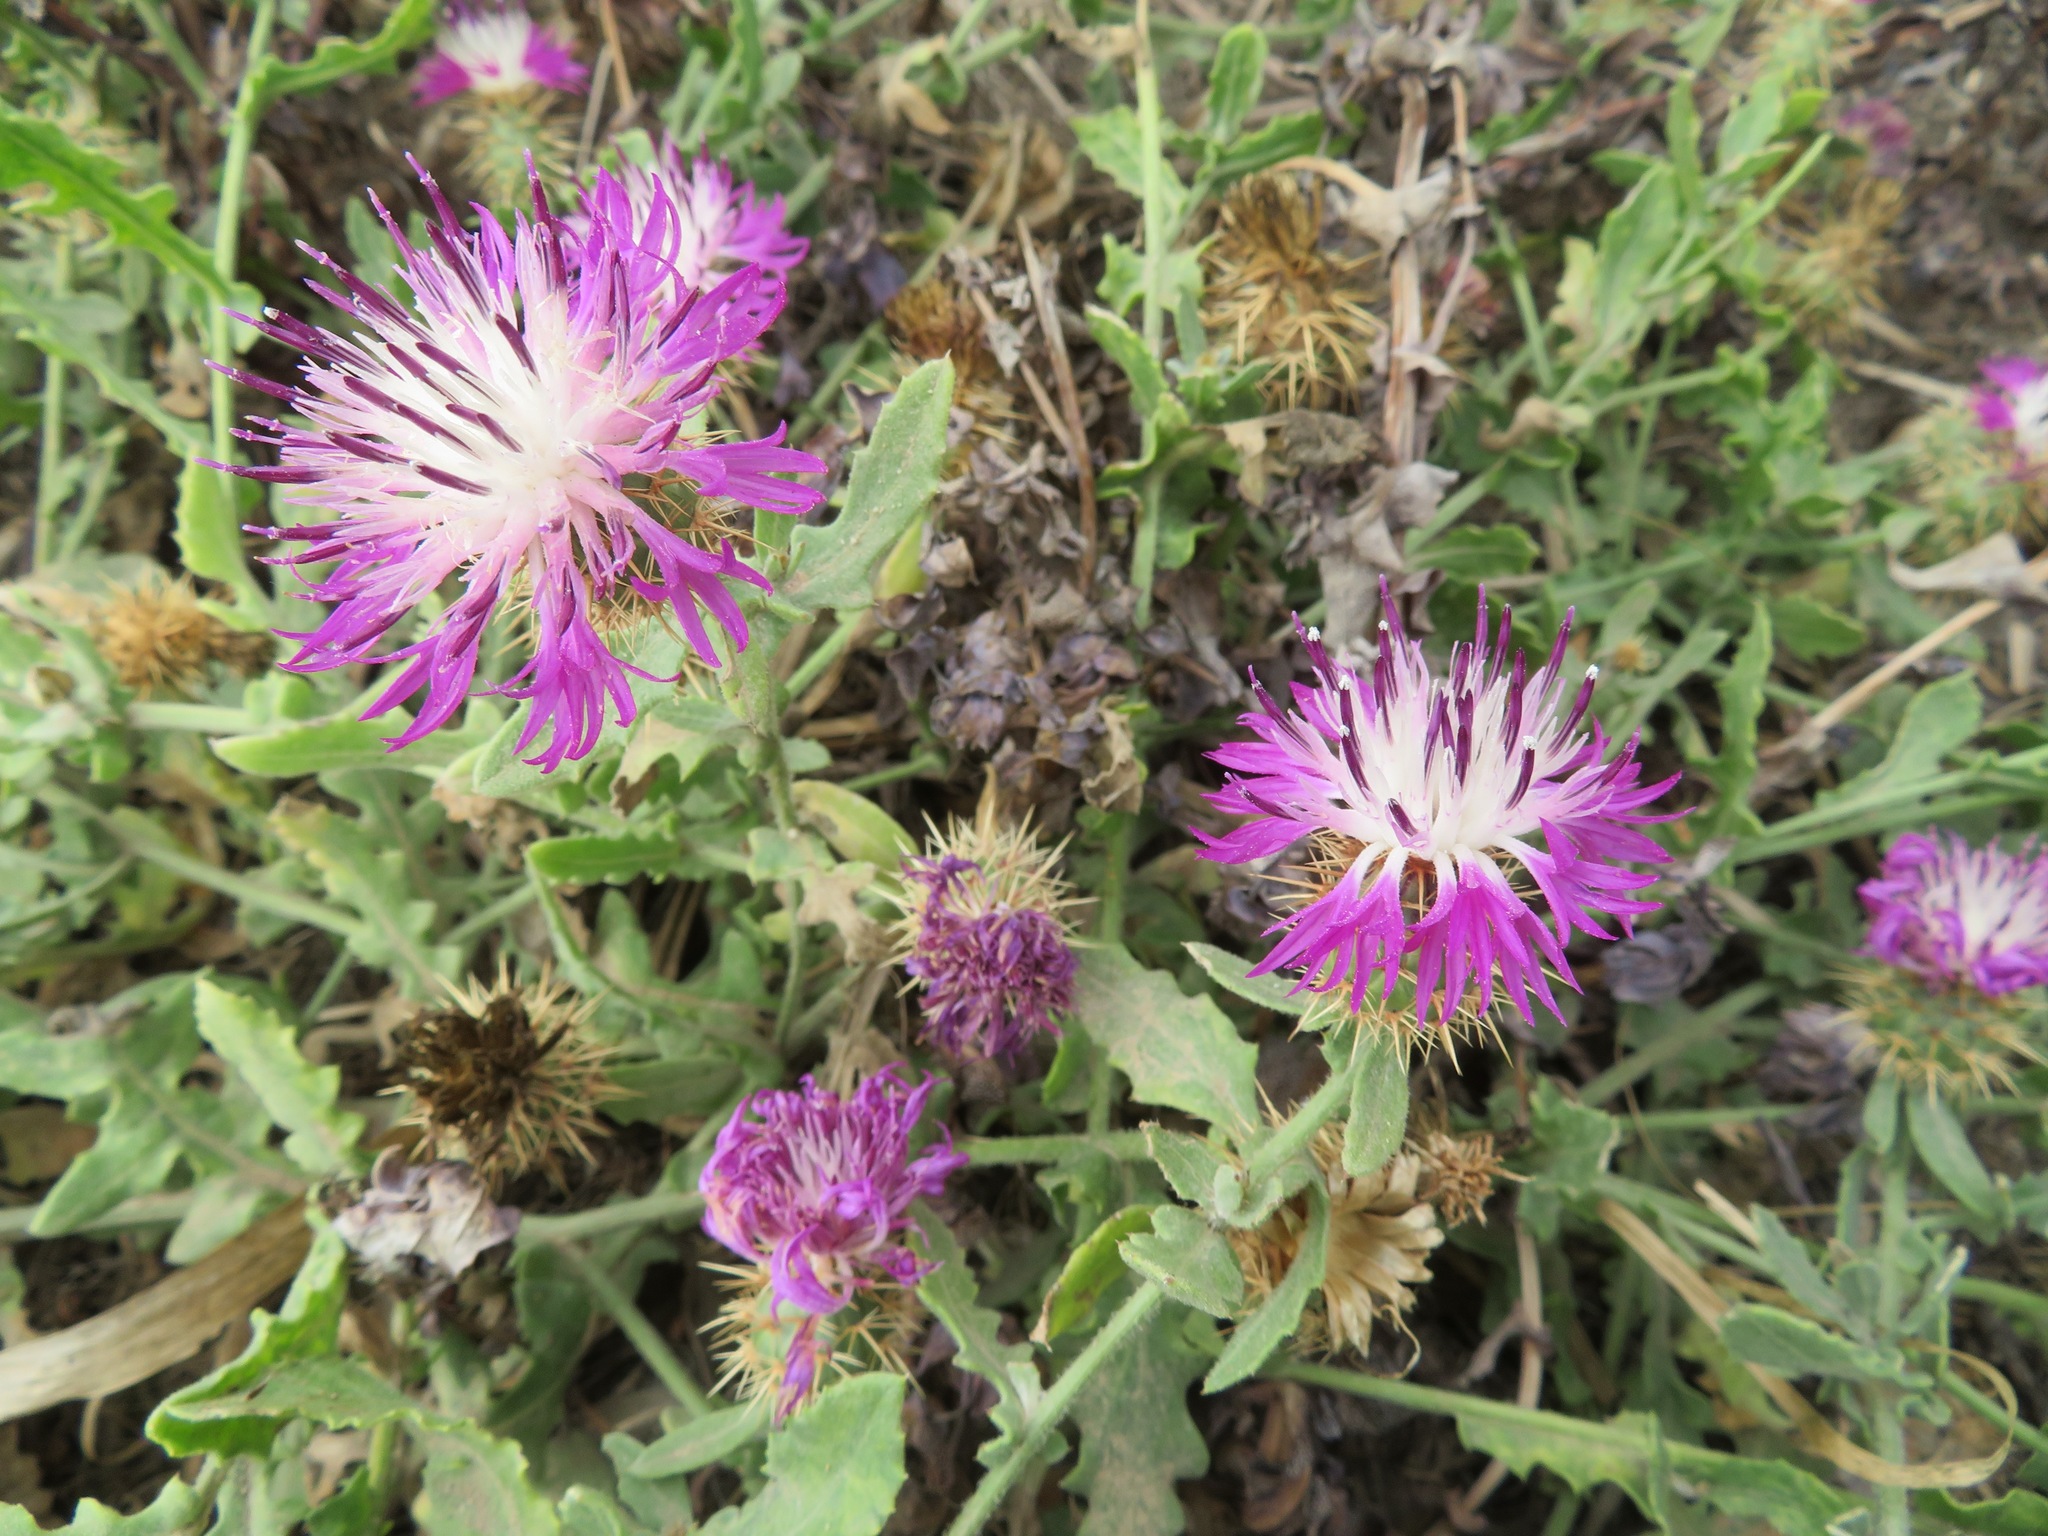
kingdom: Plantae
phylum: Tracheophyta
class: Magnoliopsida
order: Asterales
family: Asteraceae
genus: Centaurea
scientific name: Centaurea sphaerocephala
